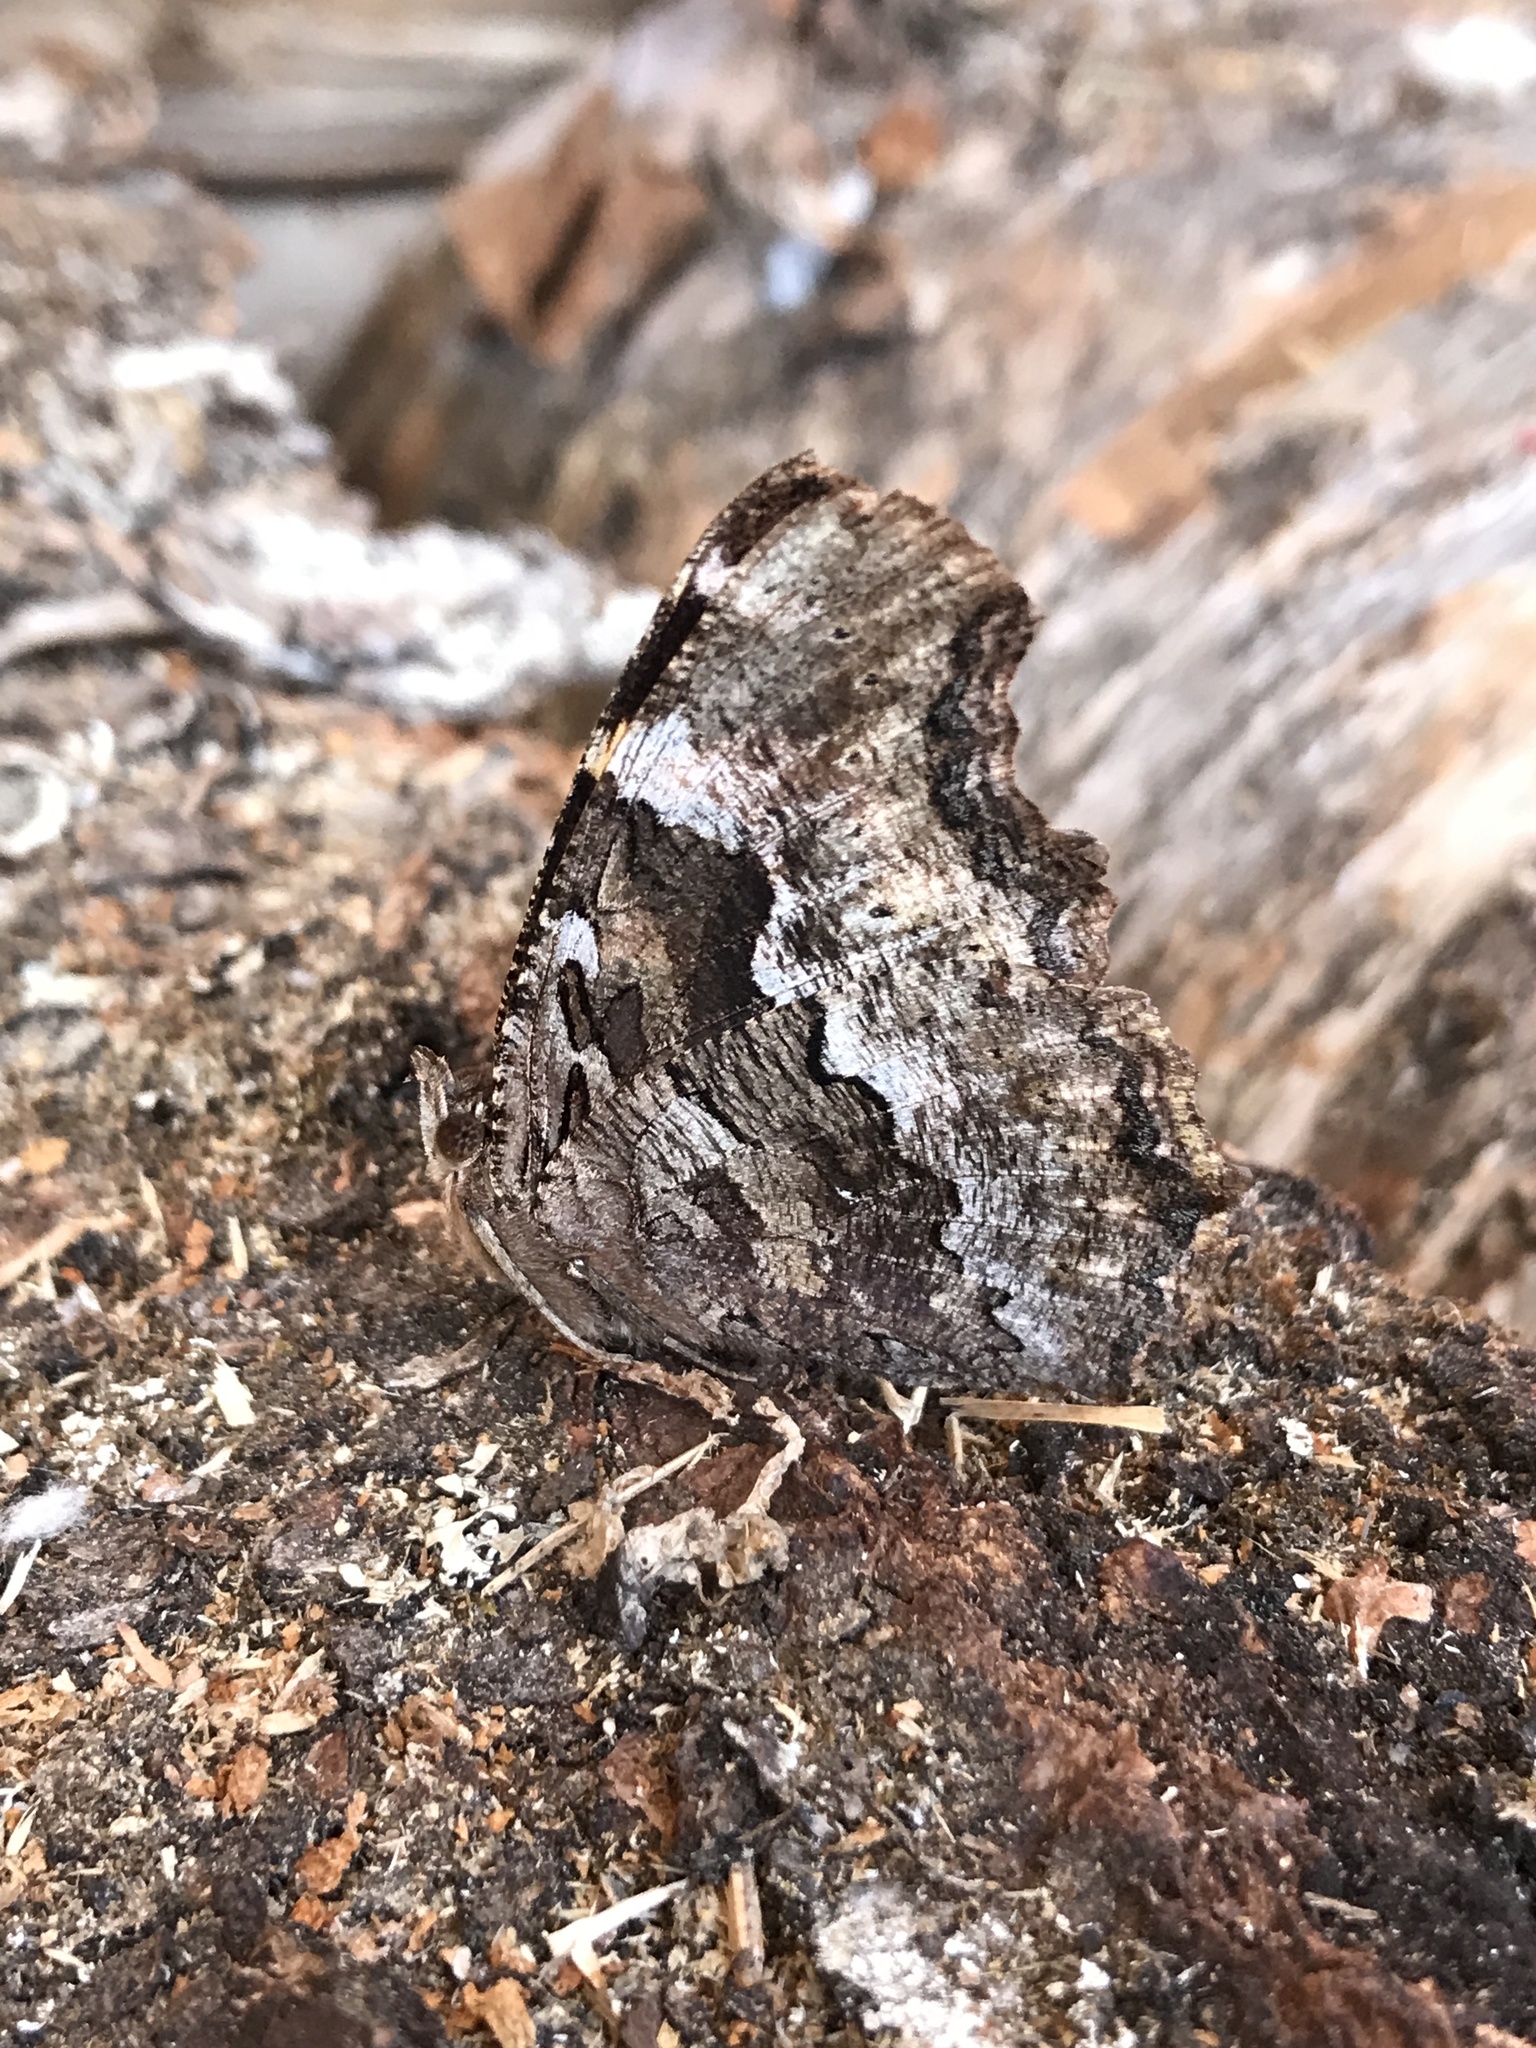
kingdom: Animalia
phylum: Arthropoda
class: Insecta
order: Lepidoptera
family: Nymphalidae
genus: Polygonia
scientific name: Polygonia vaualbum
